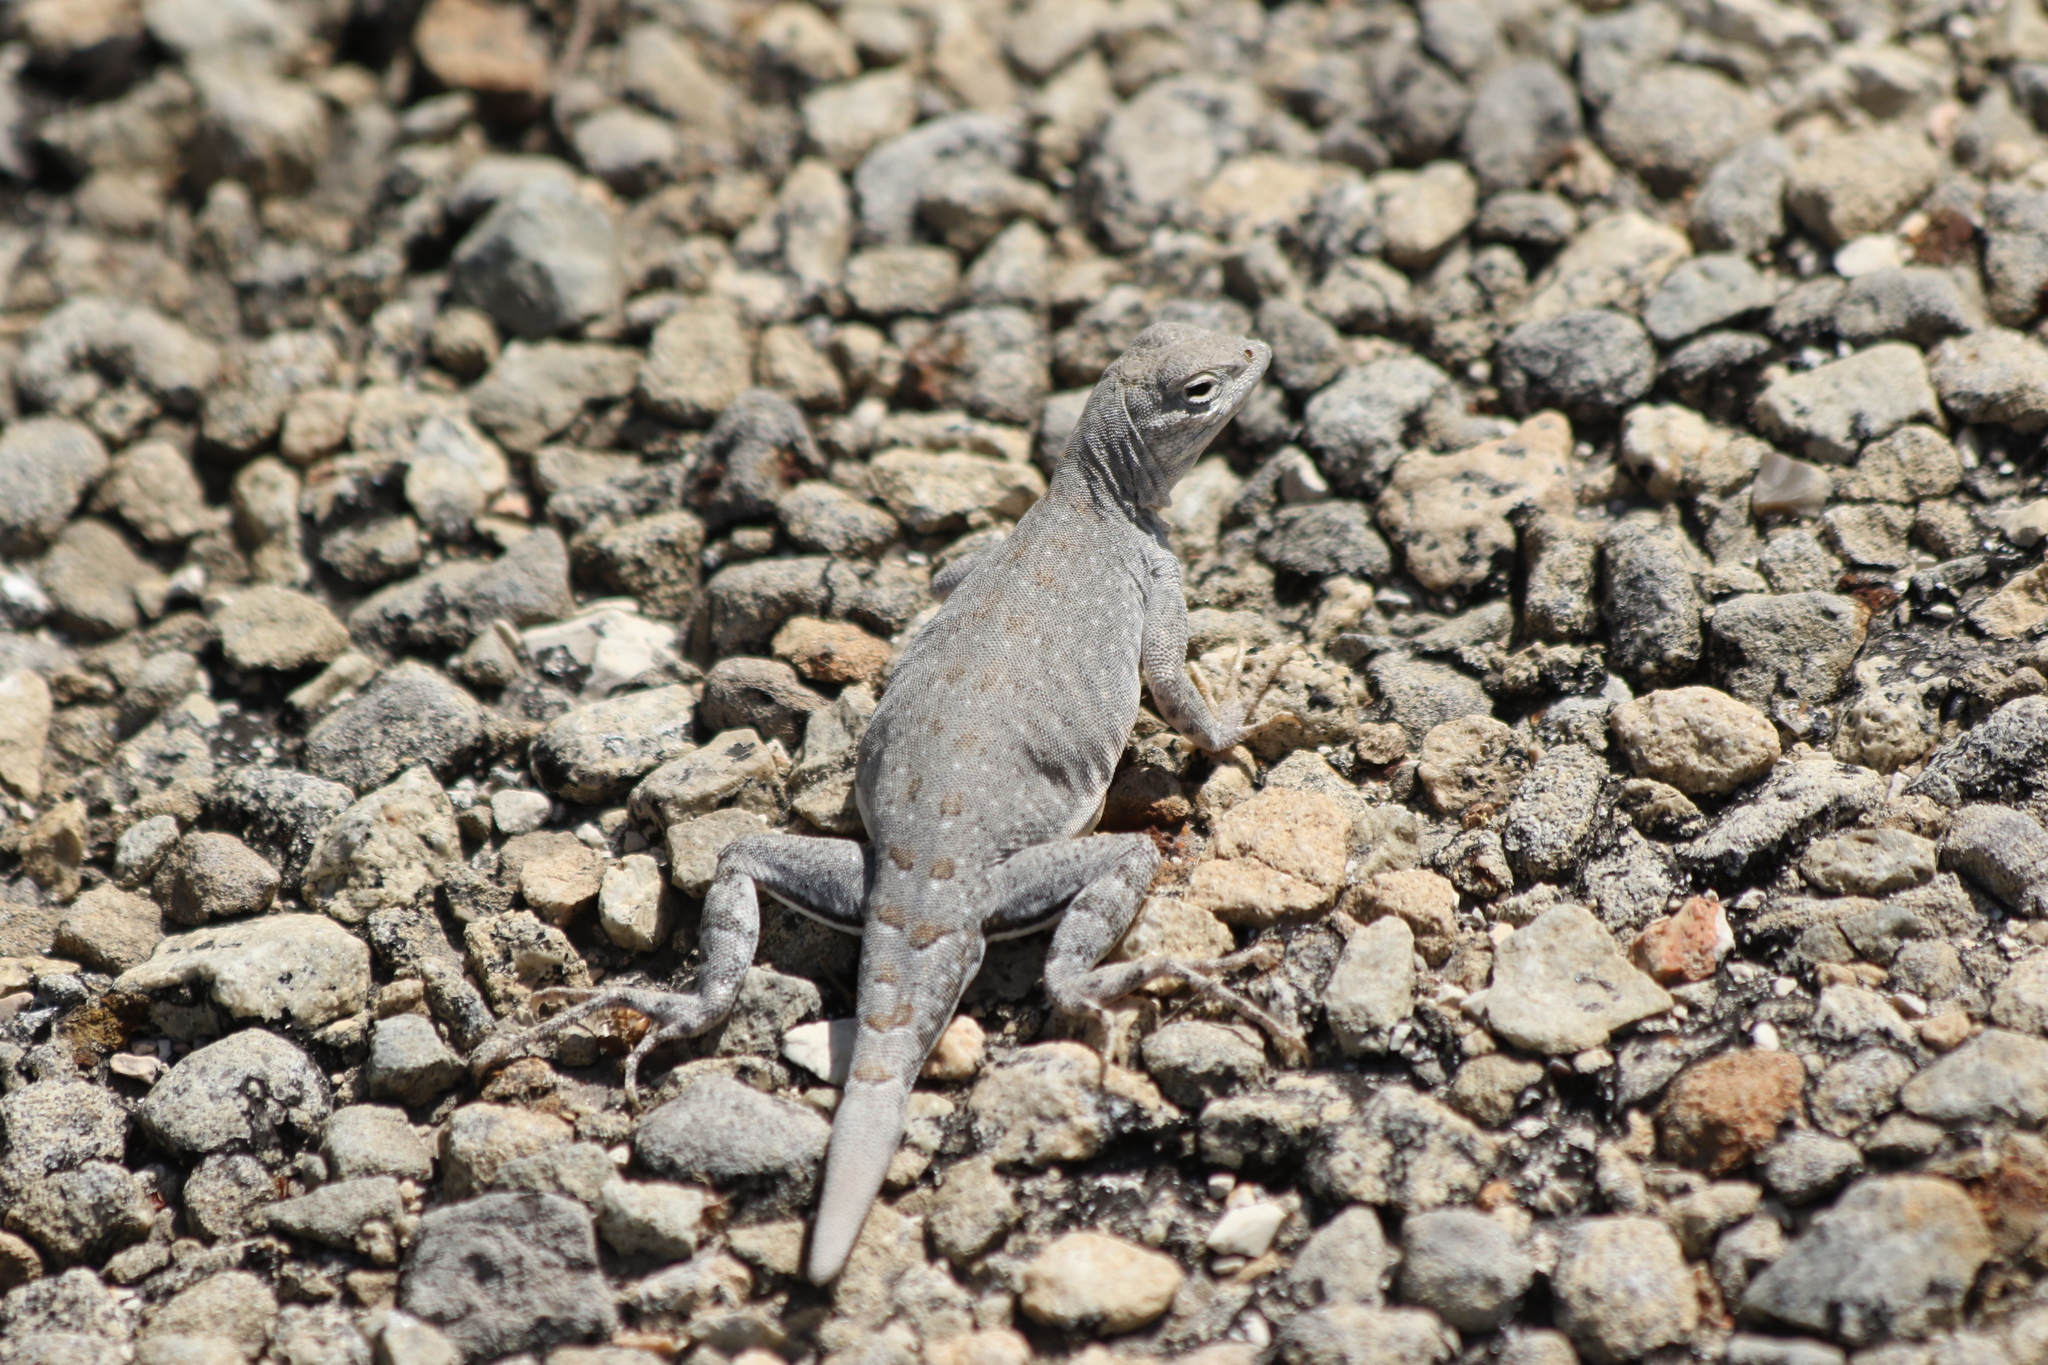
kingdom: Animalia
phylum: Chordata
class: Squamata
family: Phrynosomatidae
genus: Cophosaurus
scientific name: Cophosaurus texanus
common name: Greater earless lizard
